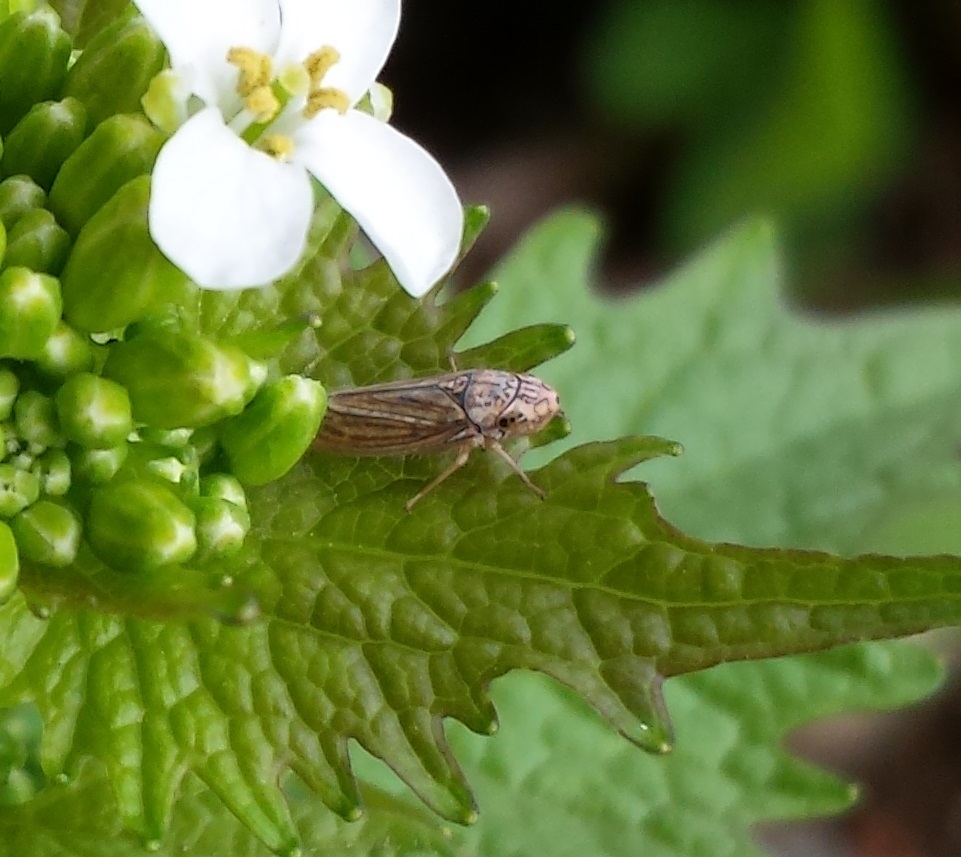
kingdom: Animalia
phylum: Arthropoda
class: Insecta
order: Hemiptera
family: Cicadellidae
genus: Neokolla
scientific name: Neokolla hieroglyphica
